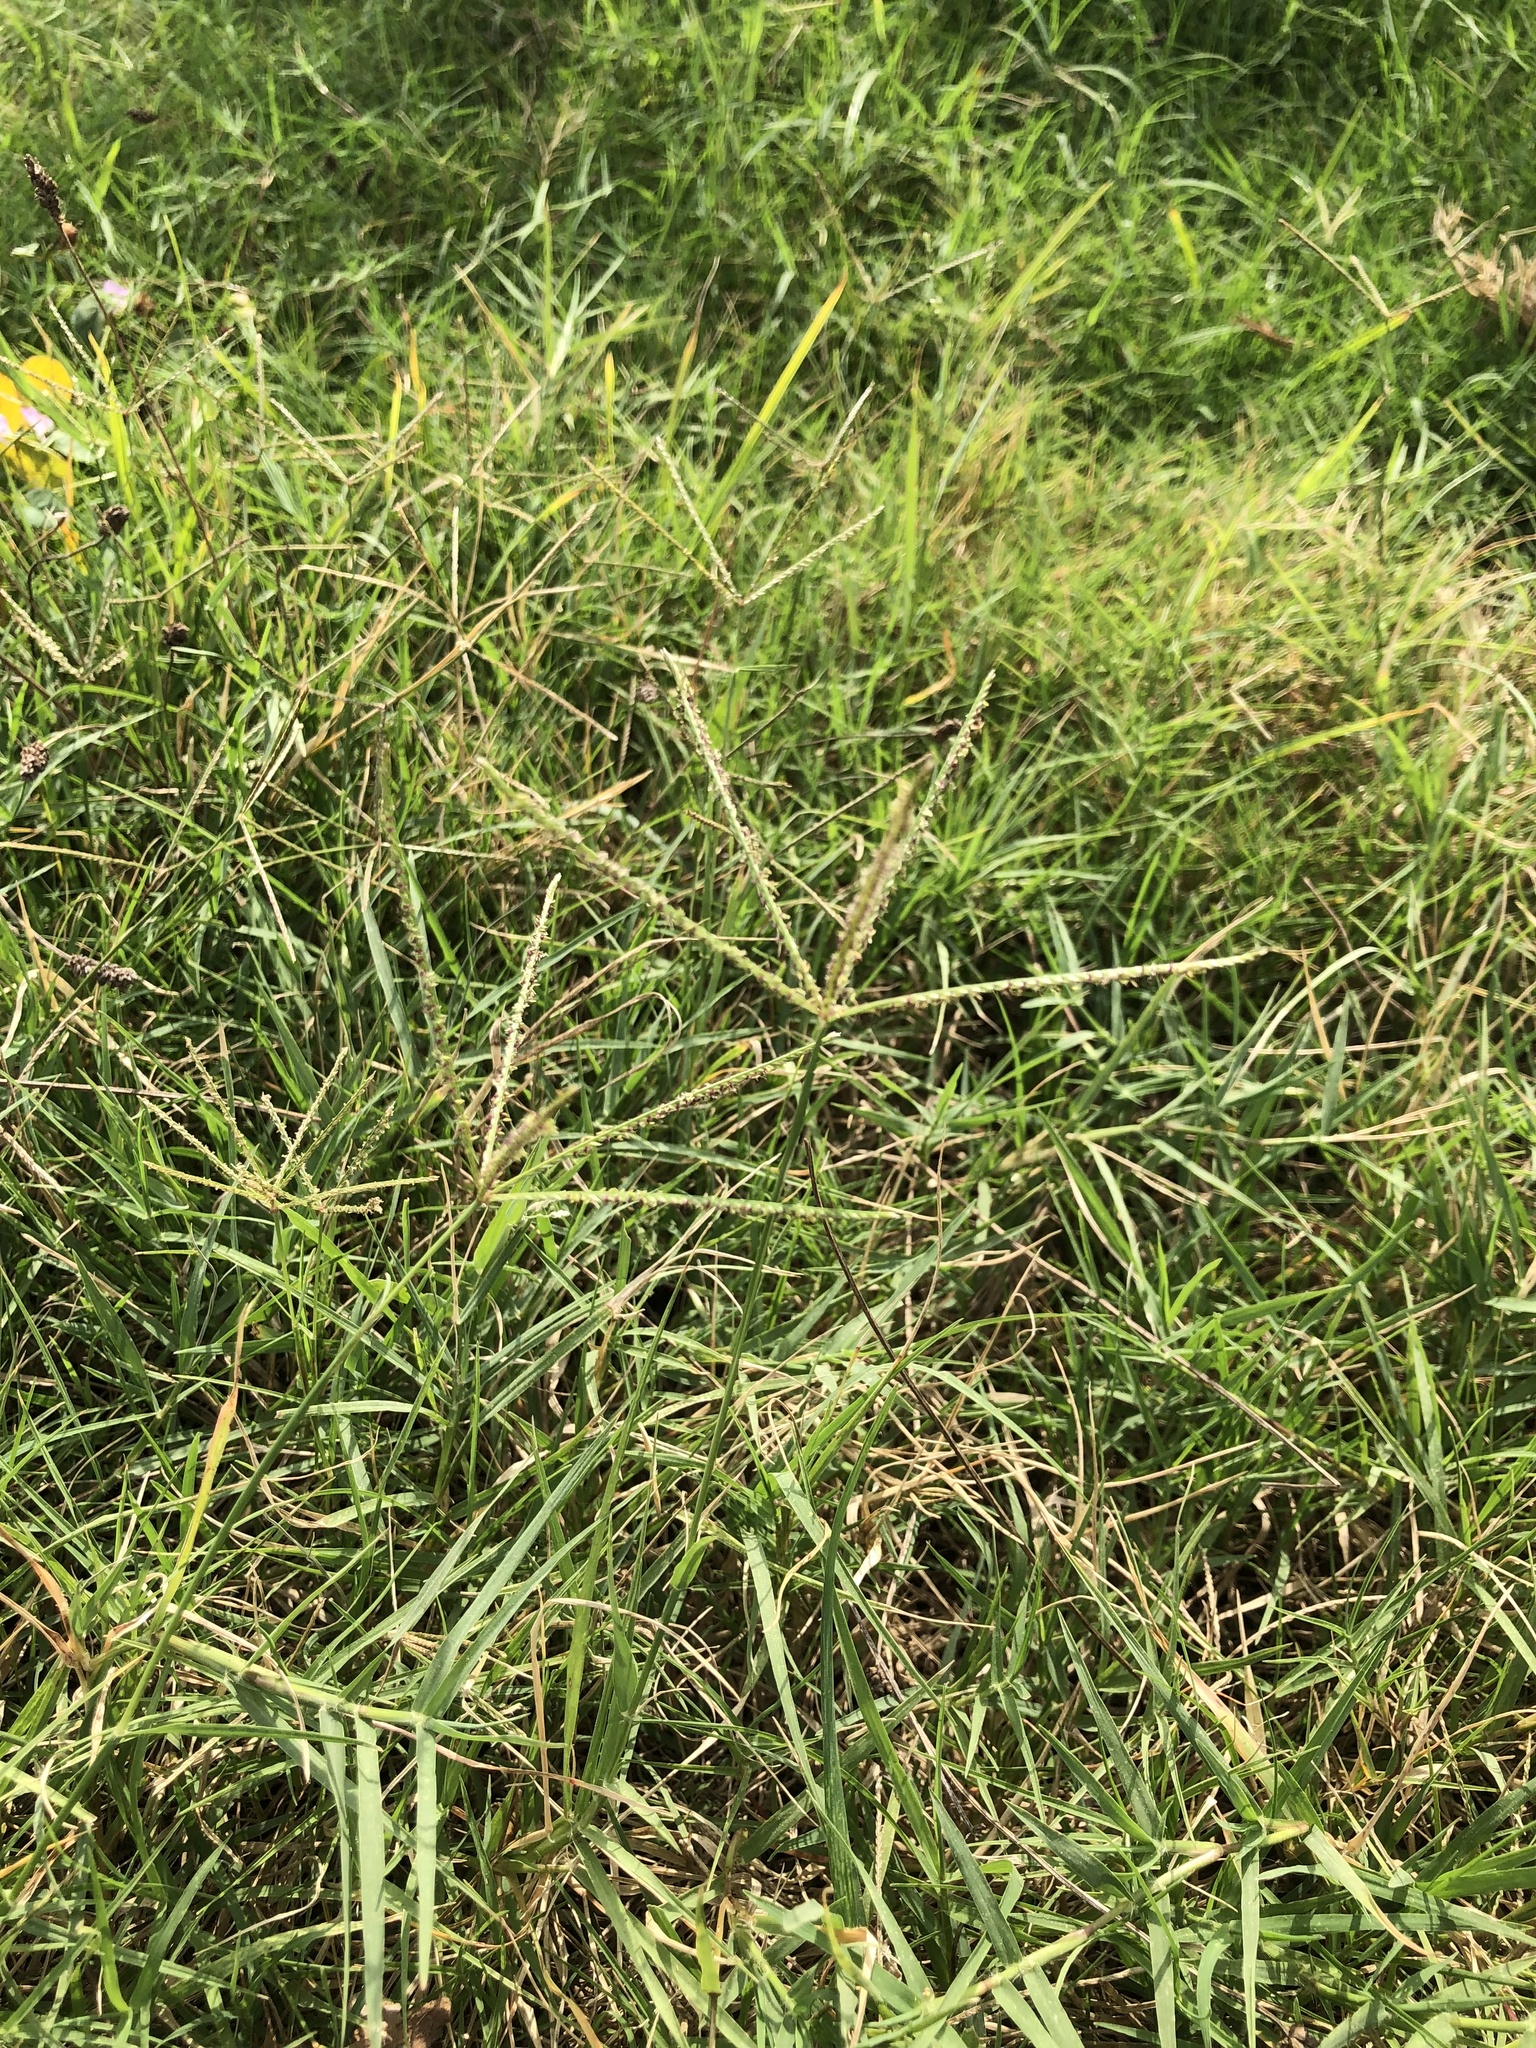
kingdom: Plantae
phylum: Tracheophyta
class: Liliopsida
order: Poales
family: Poaceae
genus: Cynodon
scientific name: Cynodon dactylon
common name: Bermuda grass
